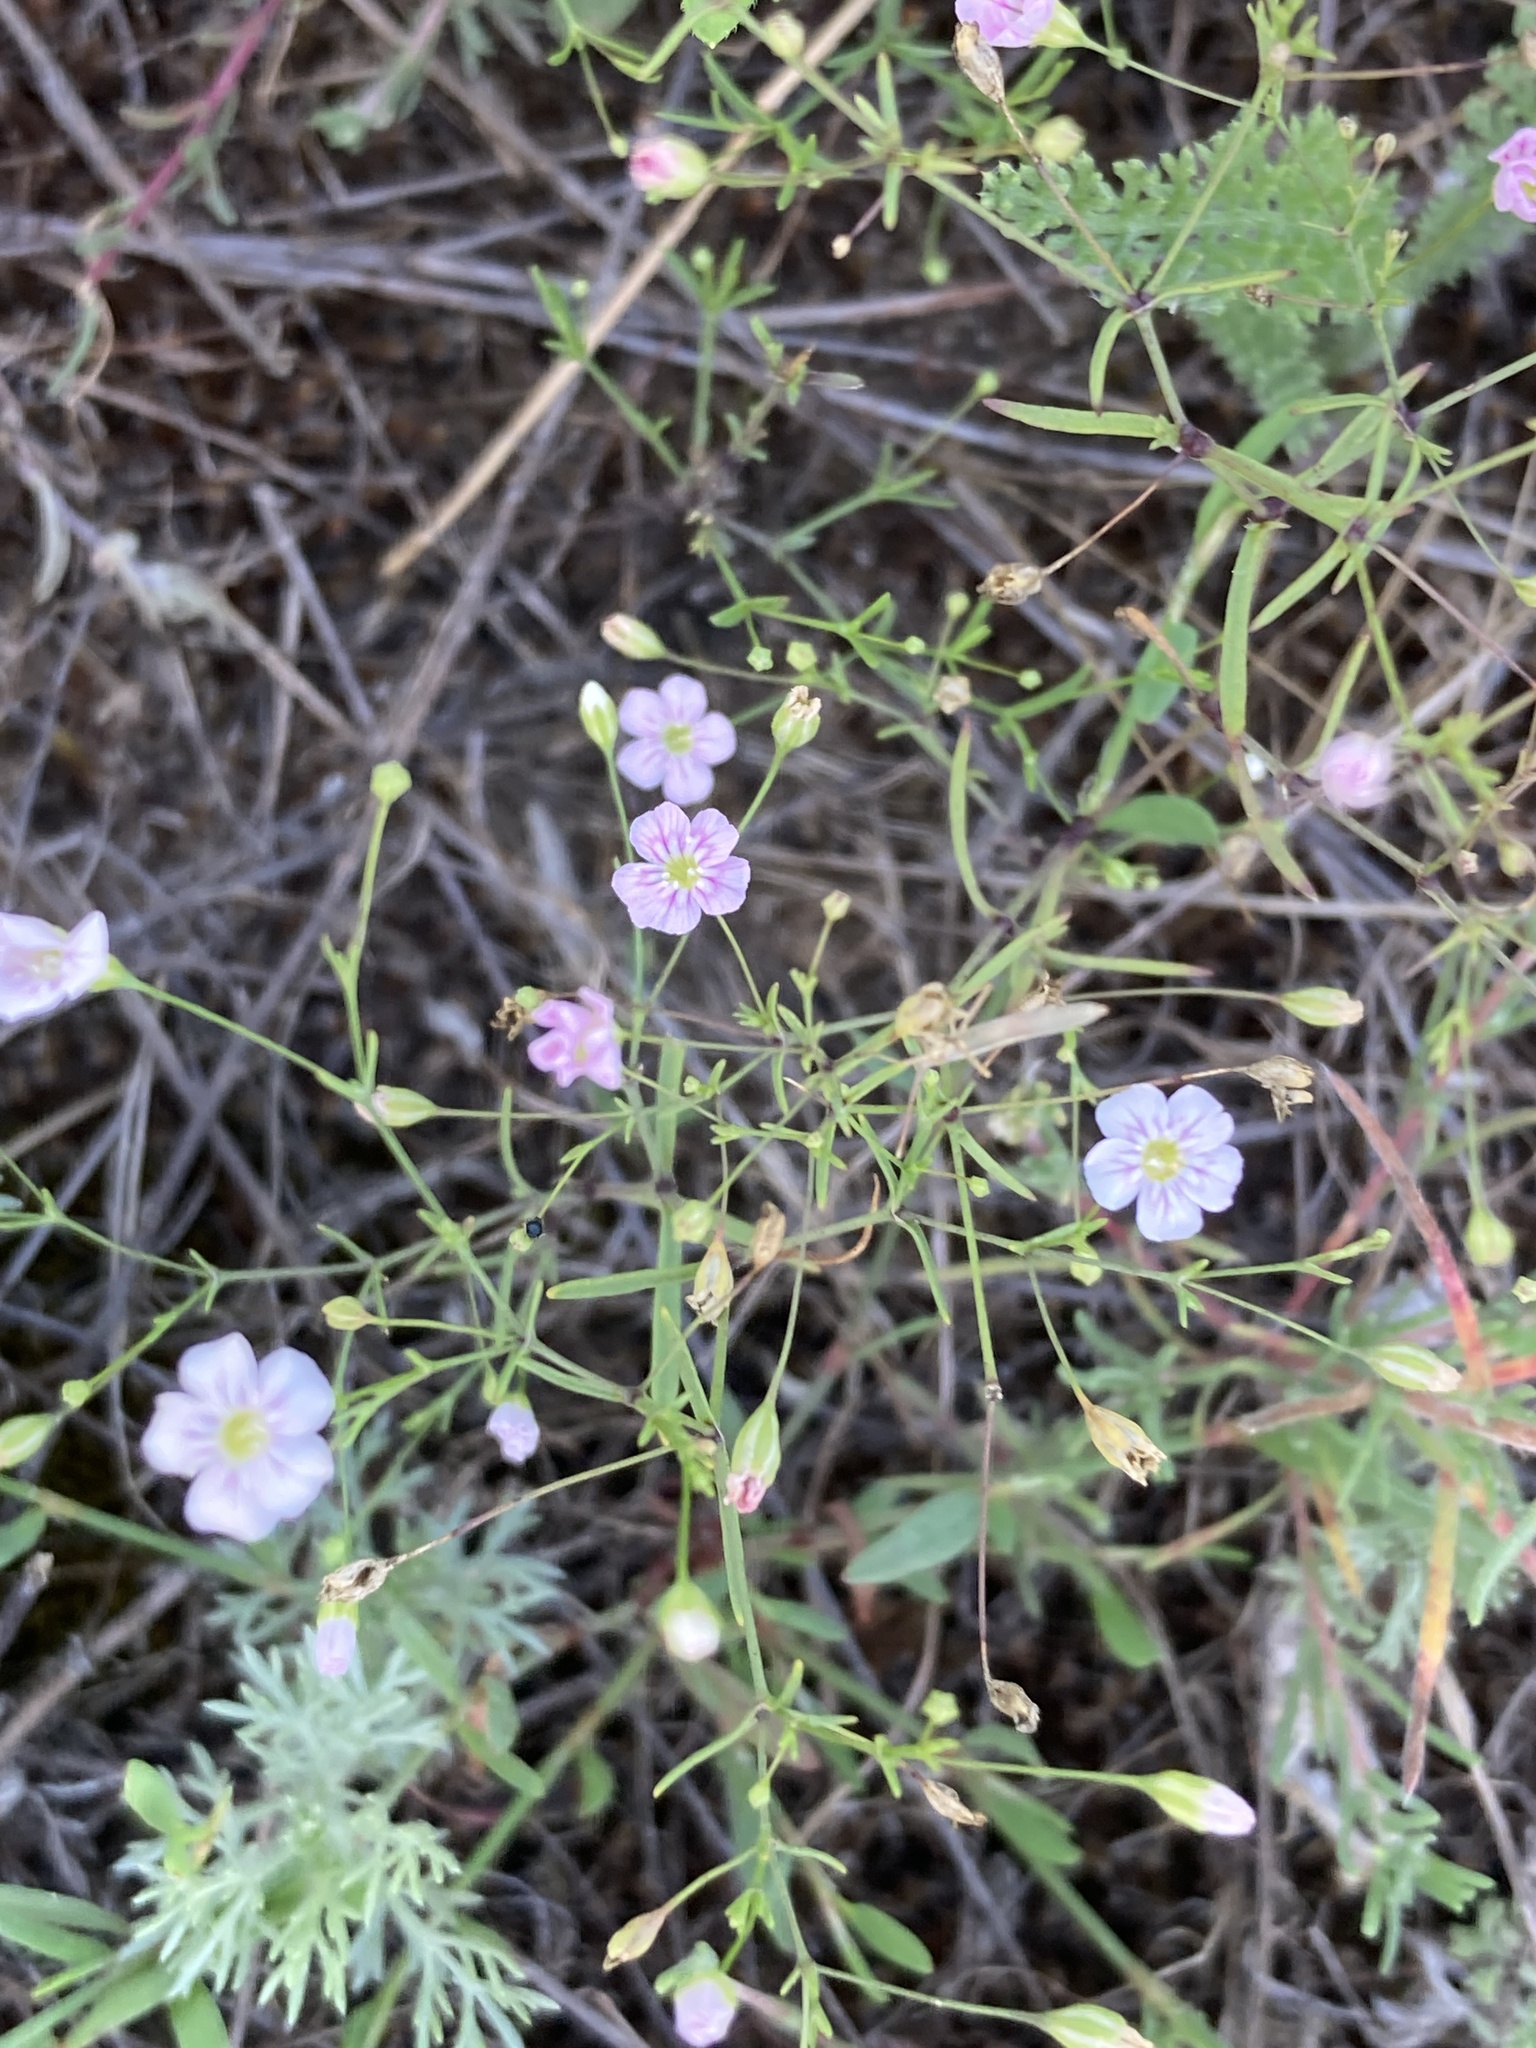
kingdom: Plantae
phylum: Tracheophyta
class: Magnoliopsida
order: Caryophyllales
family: Caryophyllaceae
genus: Psammophiliella
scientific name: Psammophiliella muralis
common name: Cushion baby's-breath
